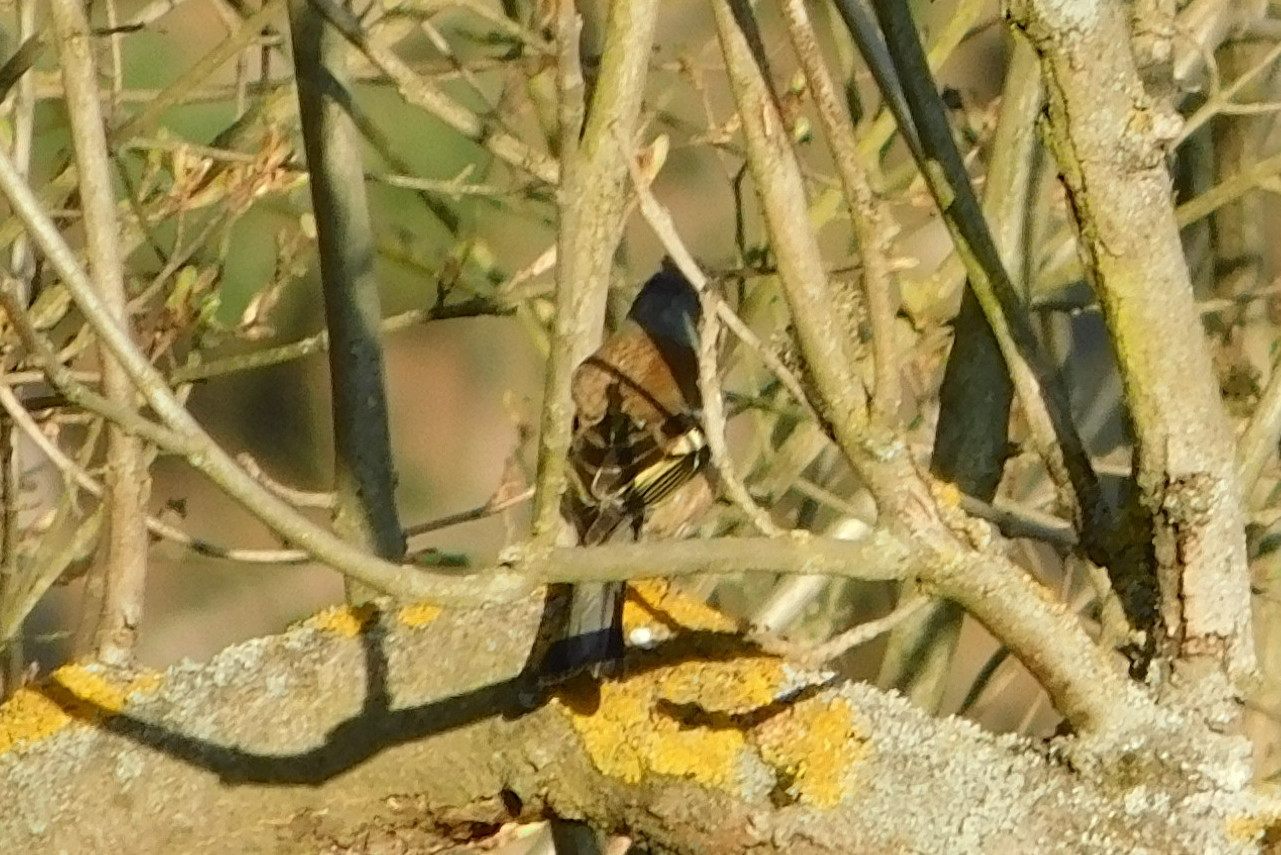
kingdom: Animalia
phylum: Chordata
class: Aves
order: Passeriformes
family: Fringillidae
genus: Fringilla
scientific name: Fringilla coelebs
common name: Common chaffinch
